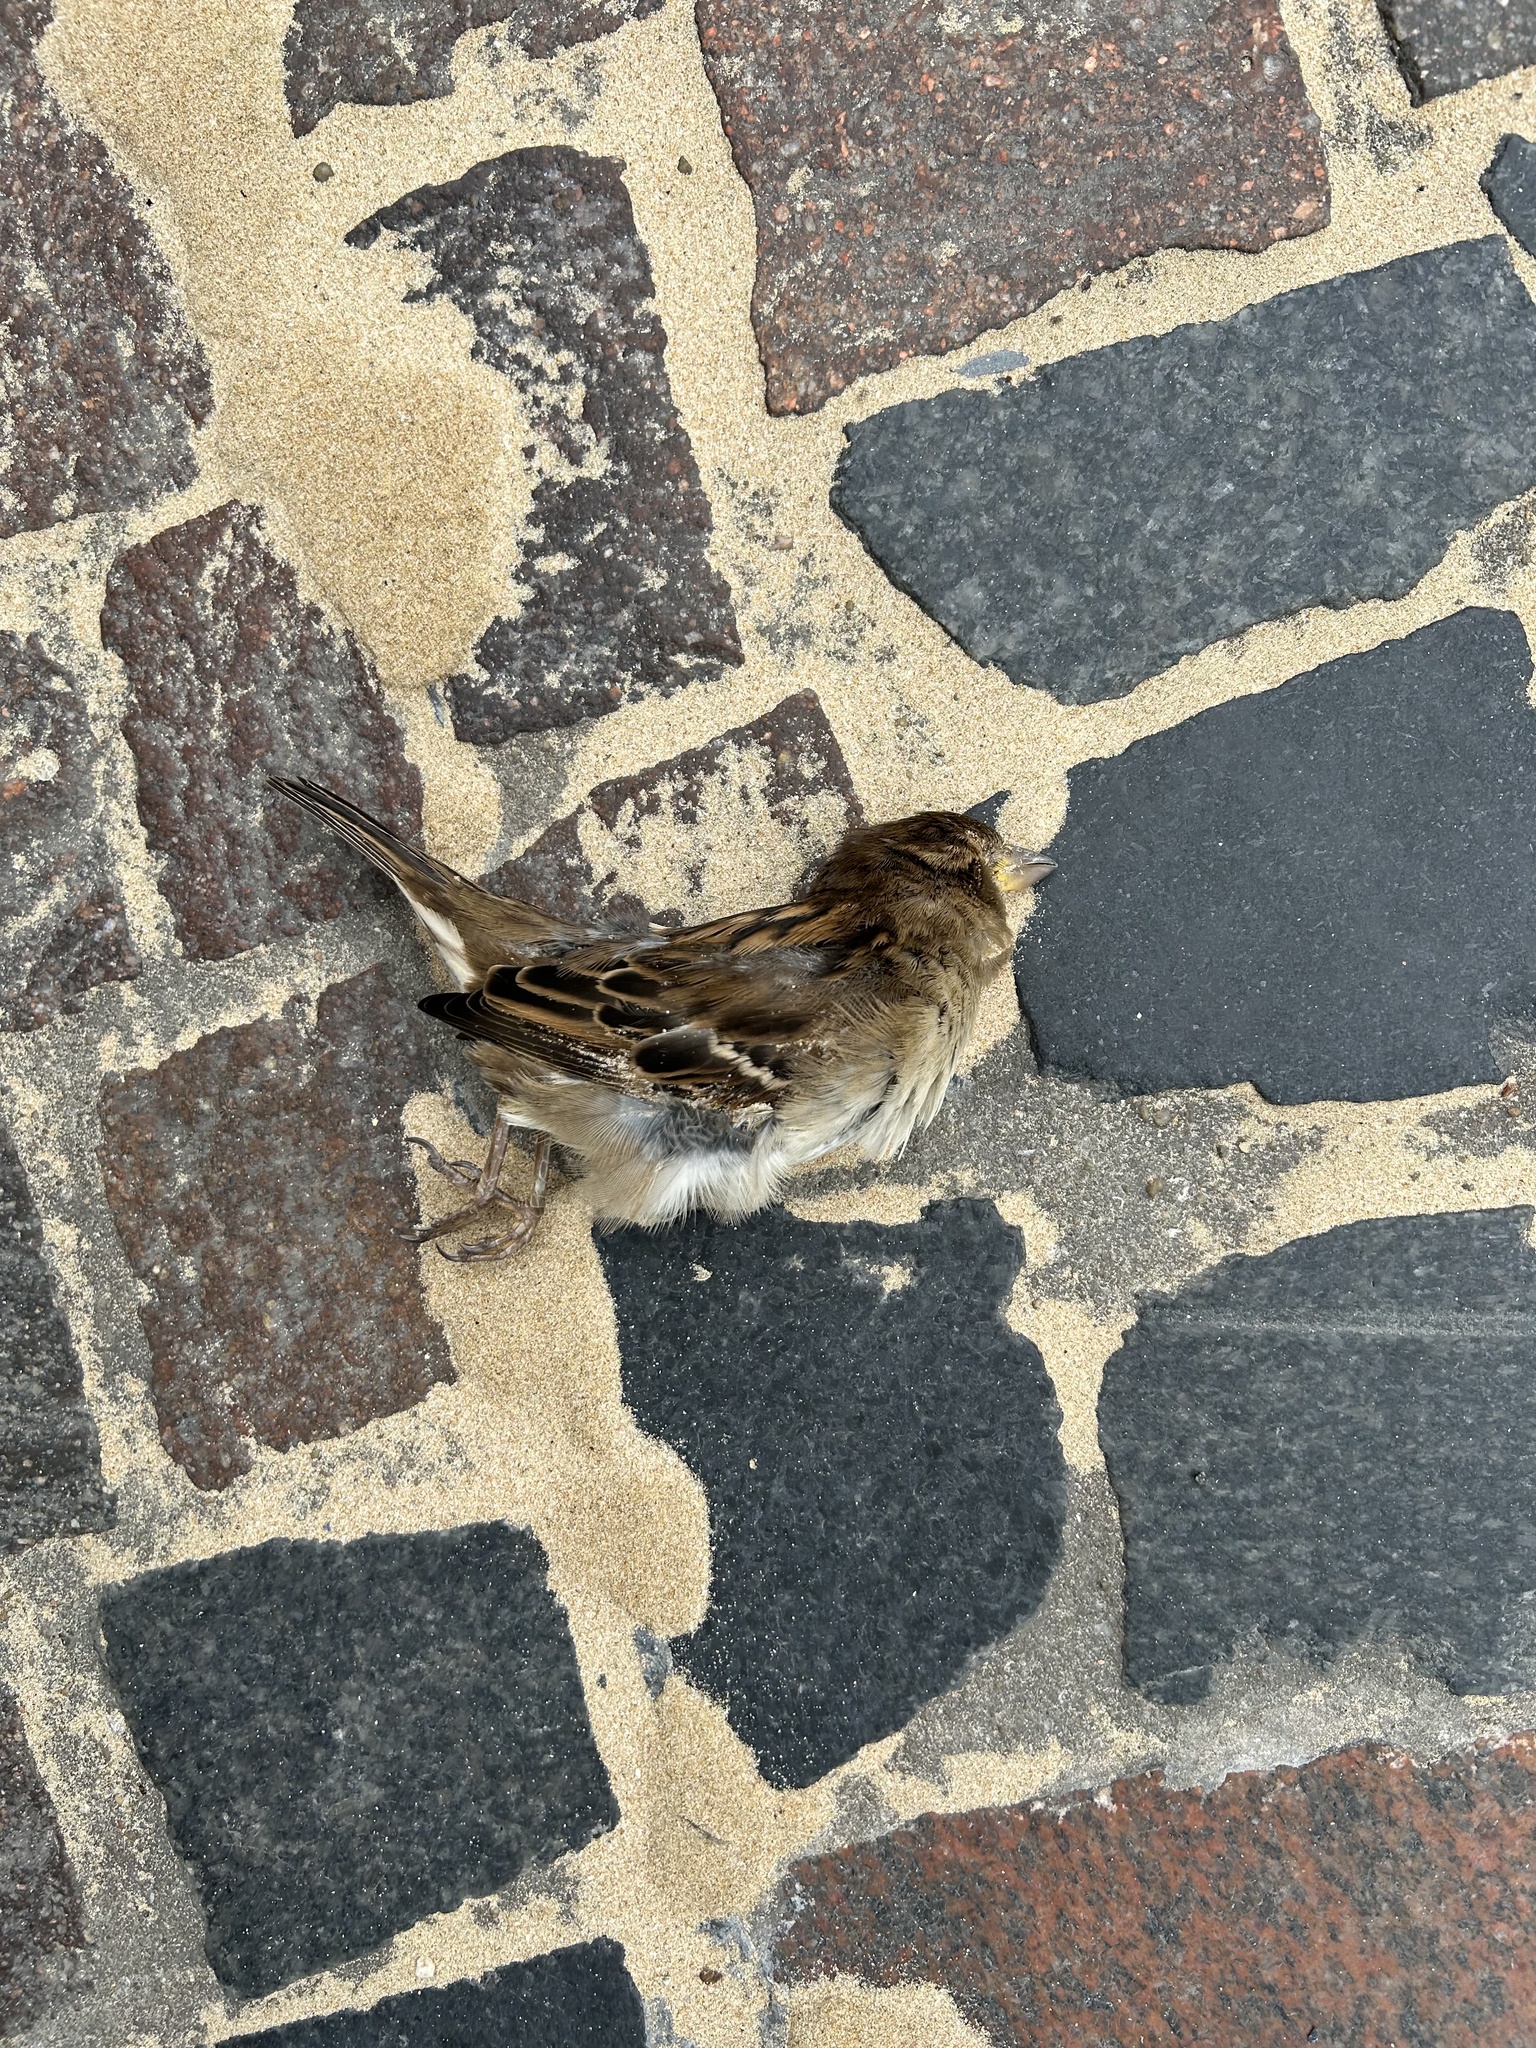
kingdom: Animalia
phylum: Chordata
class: Aves
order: Passeriformes
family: Passeridae
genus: Passer
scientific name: Passer domesticus
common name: House sparrow
